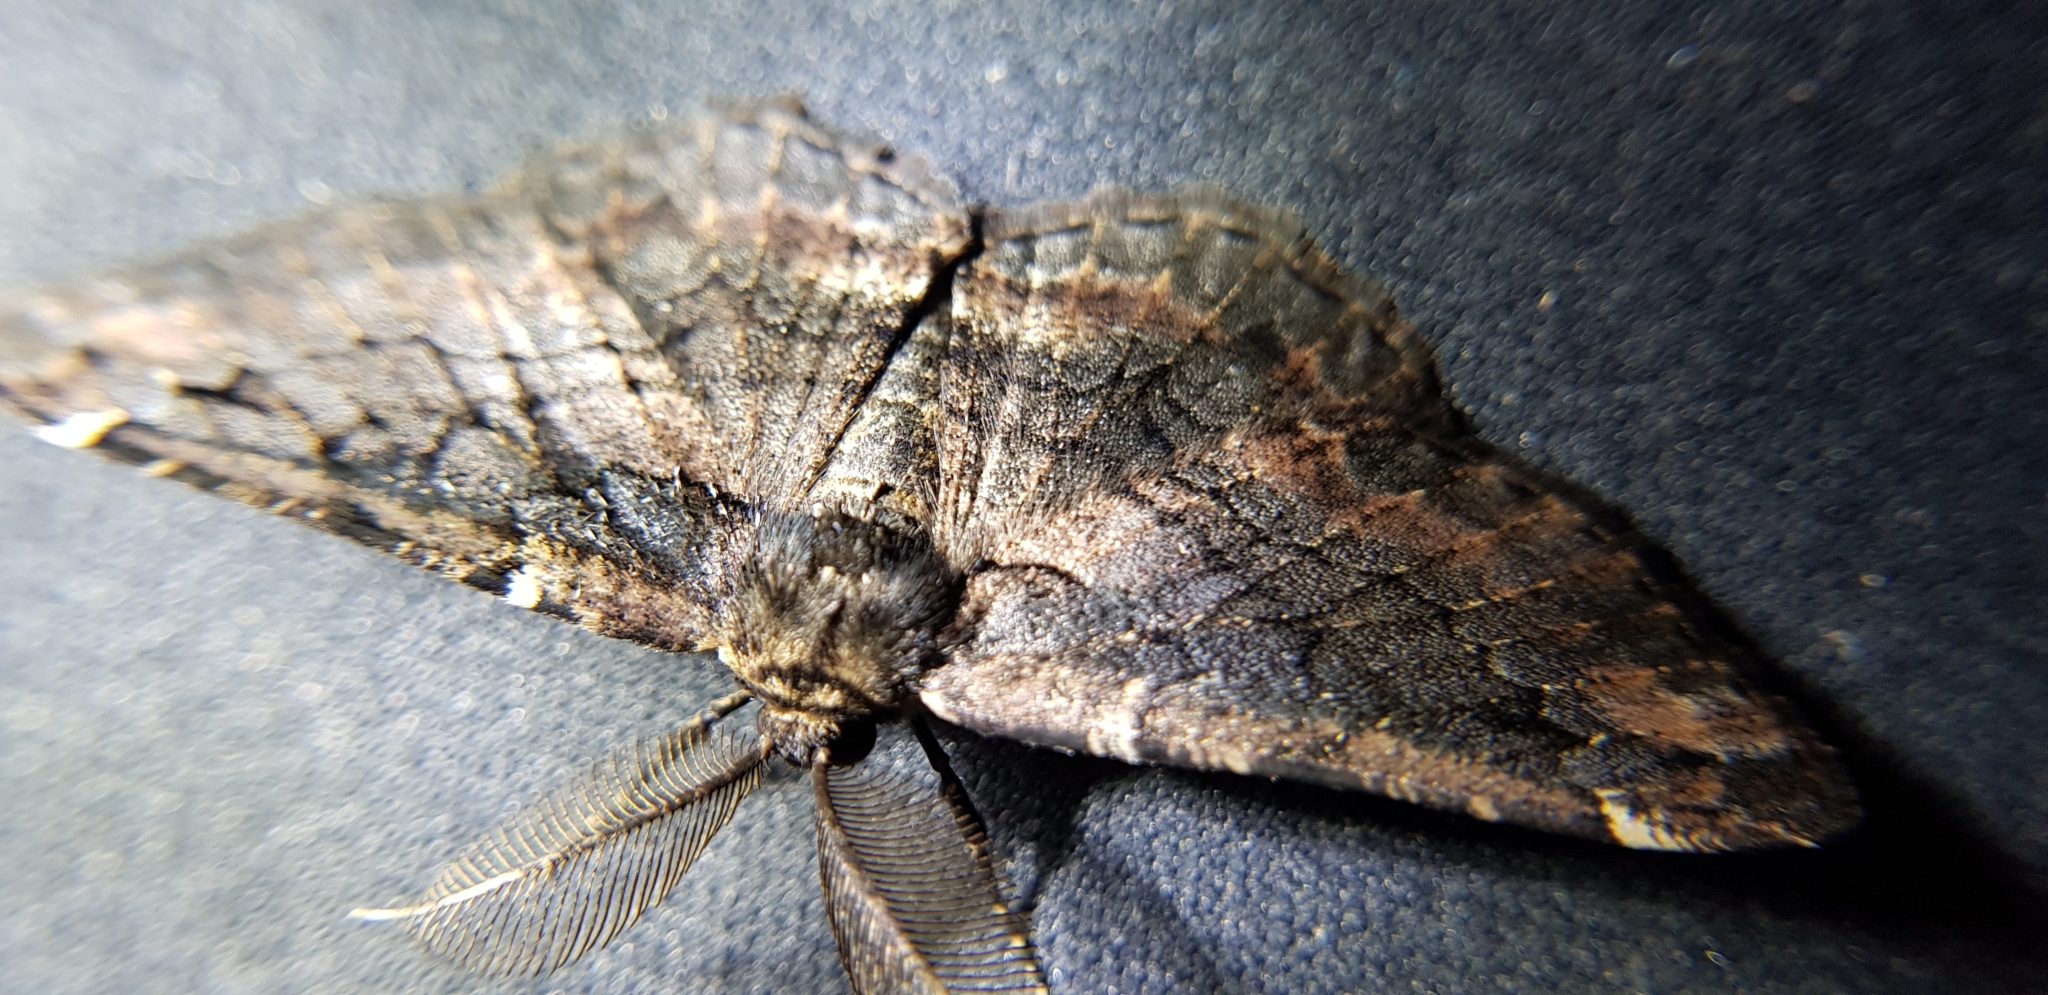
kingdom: Animalia
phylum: Arthropoda
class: Insecta
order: Lepidoptera
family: Geometridae
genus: Pholodes
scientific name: Pholodes sinistraria
